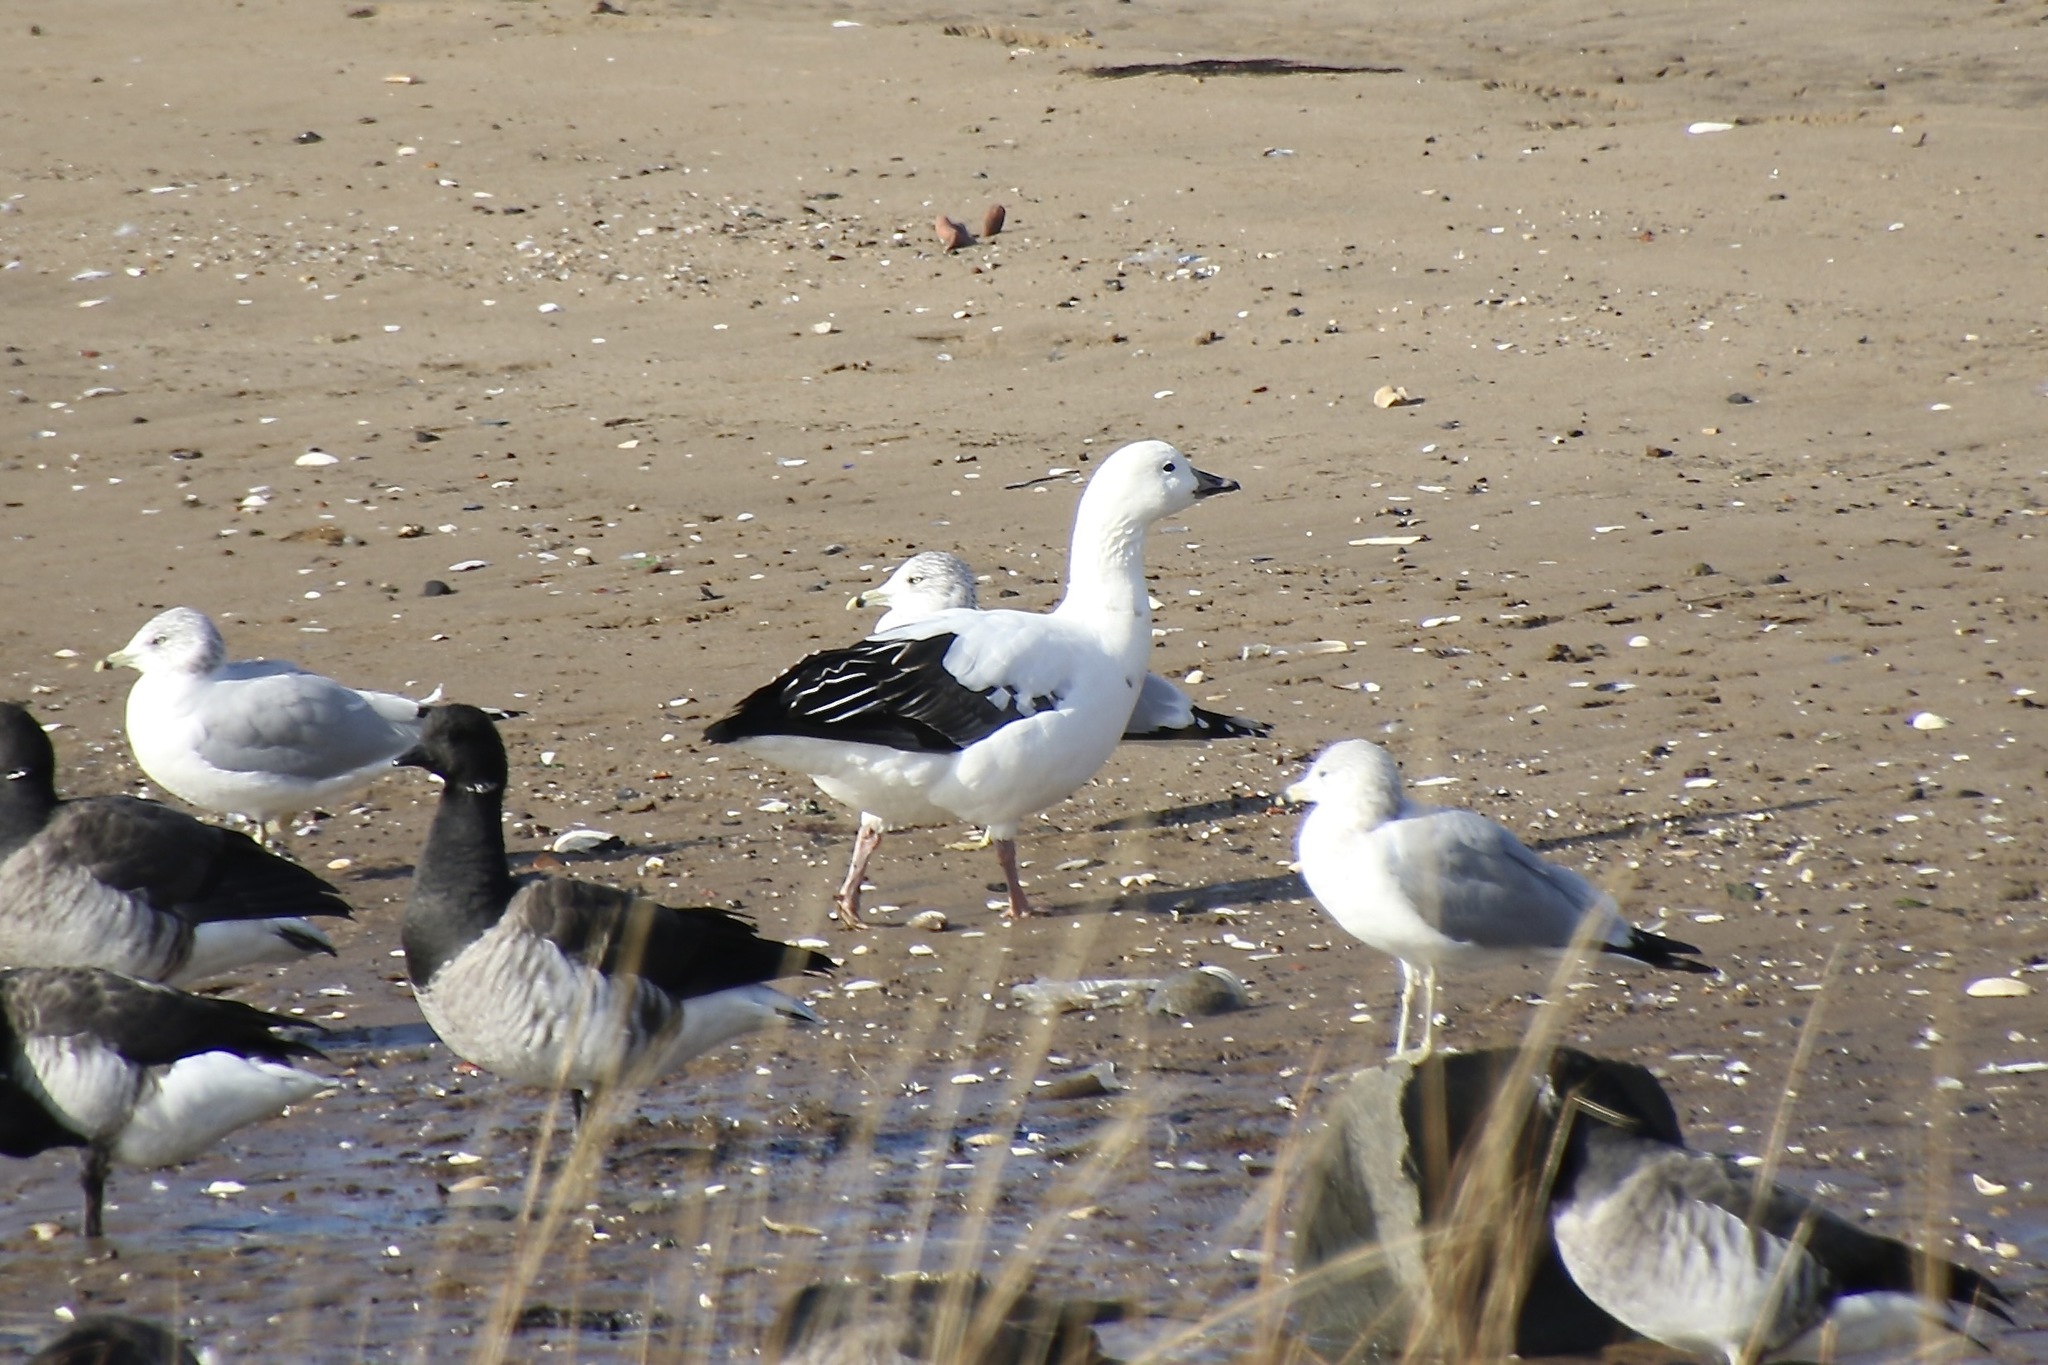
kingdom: Animalia
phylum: Chordata
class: Aves
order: Anseriformes
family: Anatidae
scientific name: Anatidae
